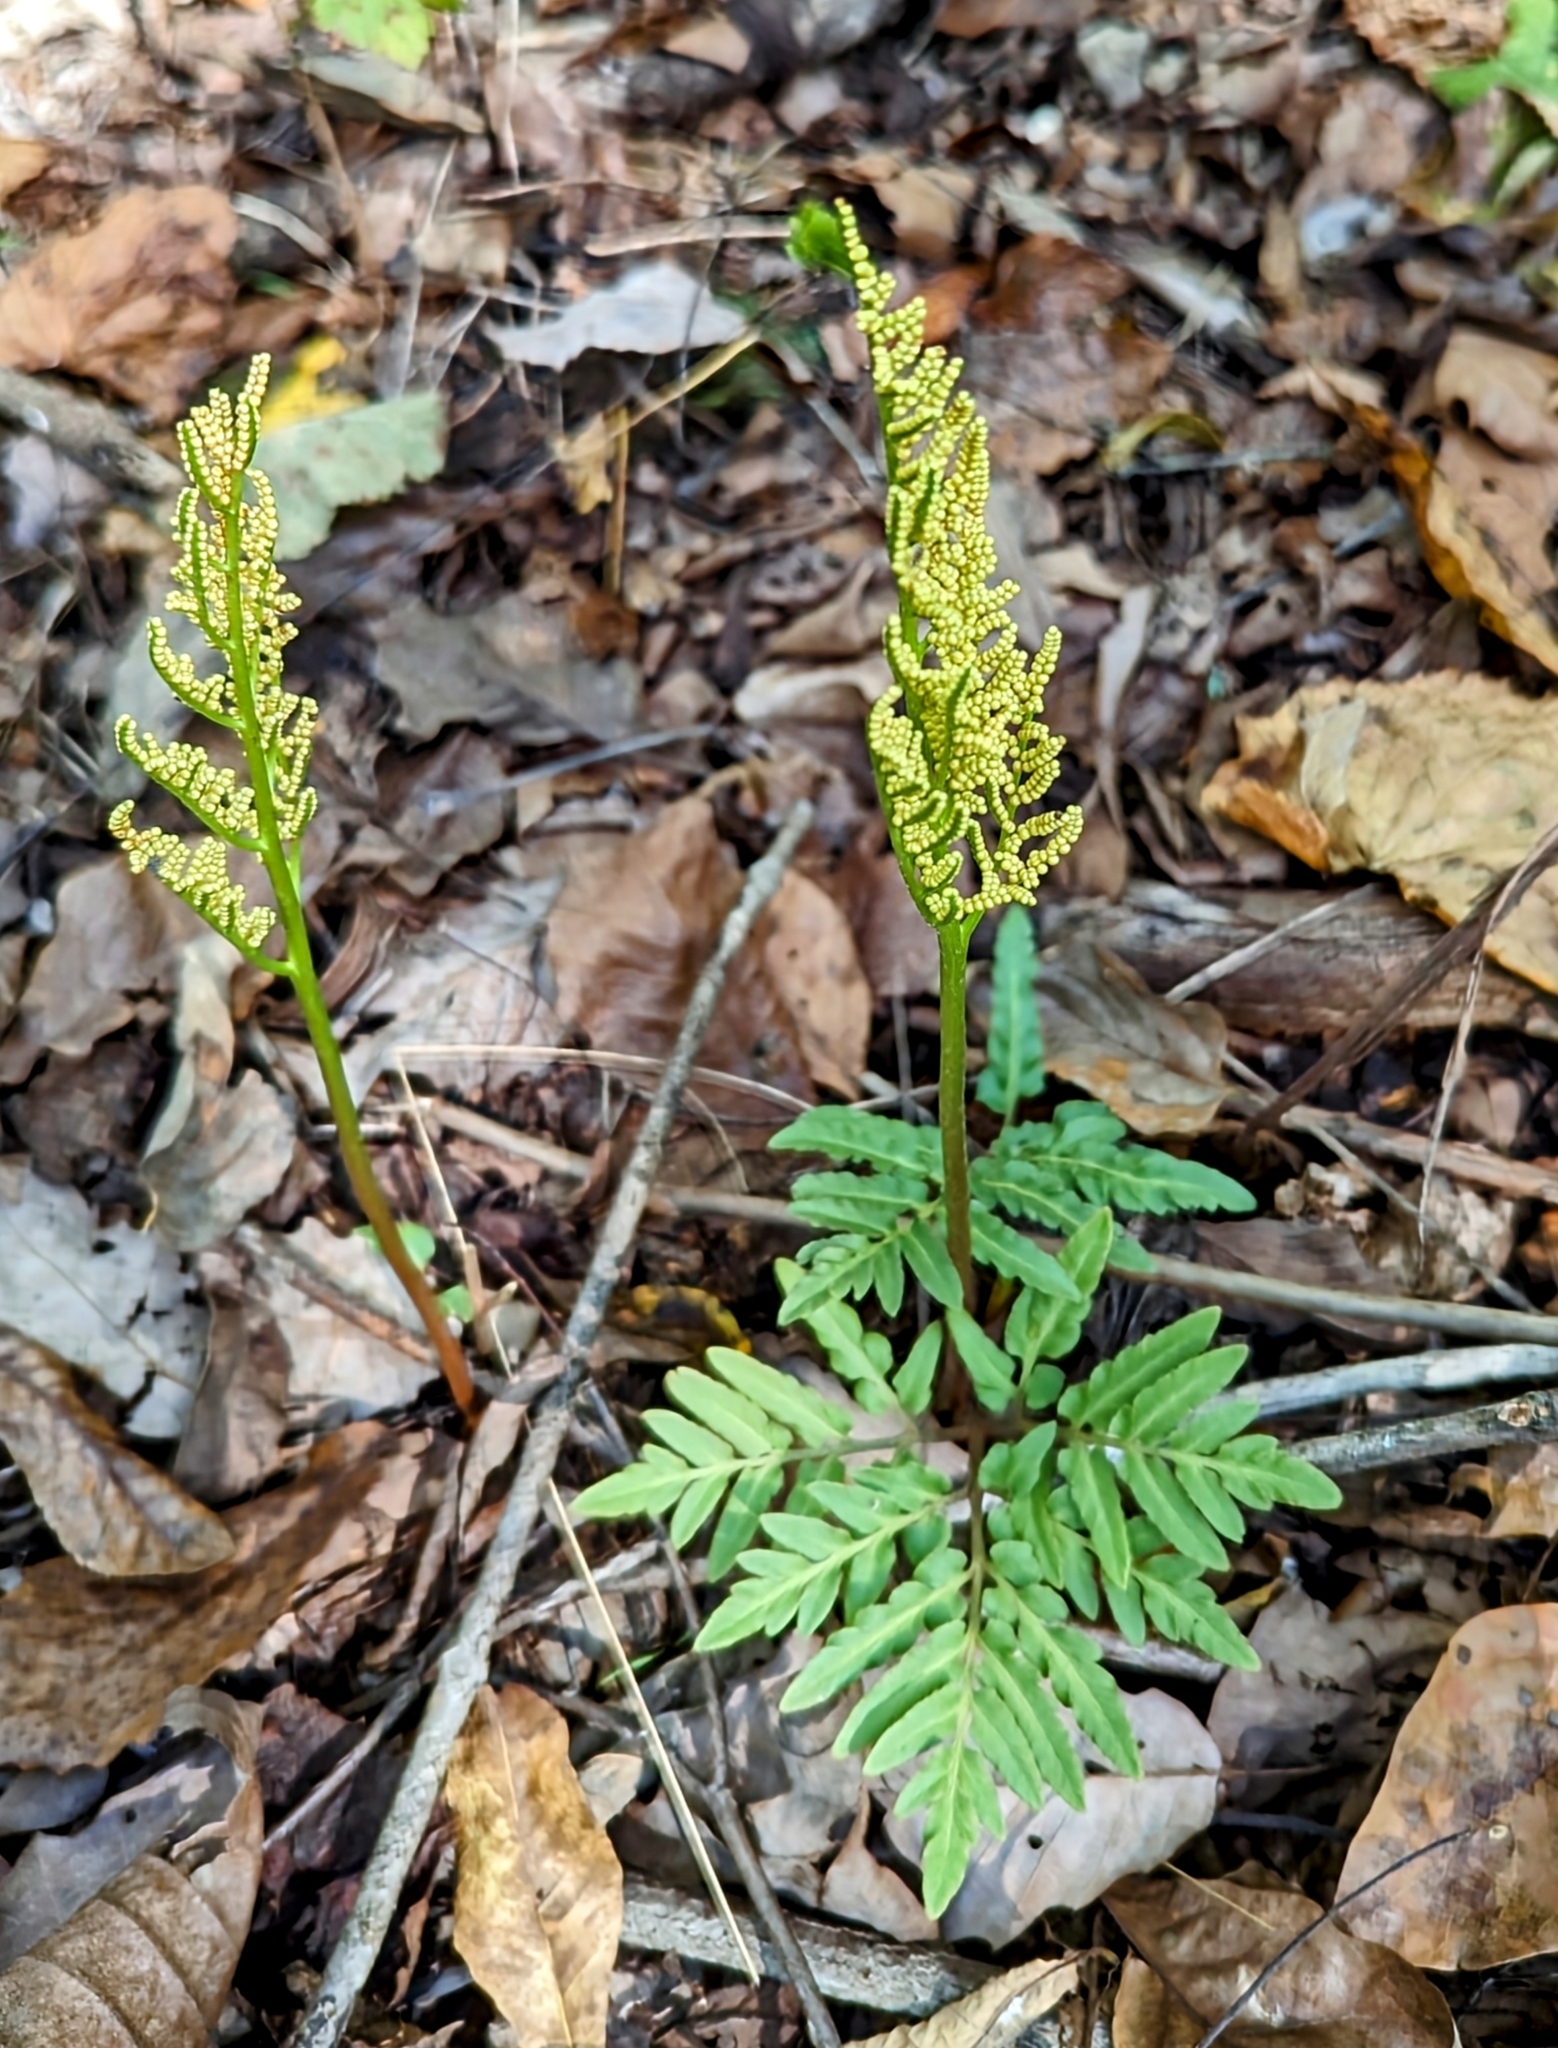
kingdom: Plantae
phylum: Tracheophyta
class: Polypodiopsida
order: Ophioglossales
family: Ophioglossaceae
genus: Sceptridium
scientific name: Sceptridium dissectum
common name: Cut-leaved grapefern
